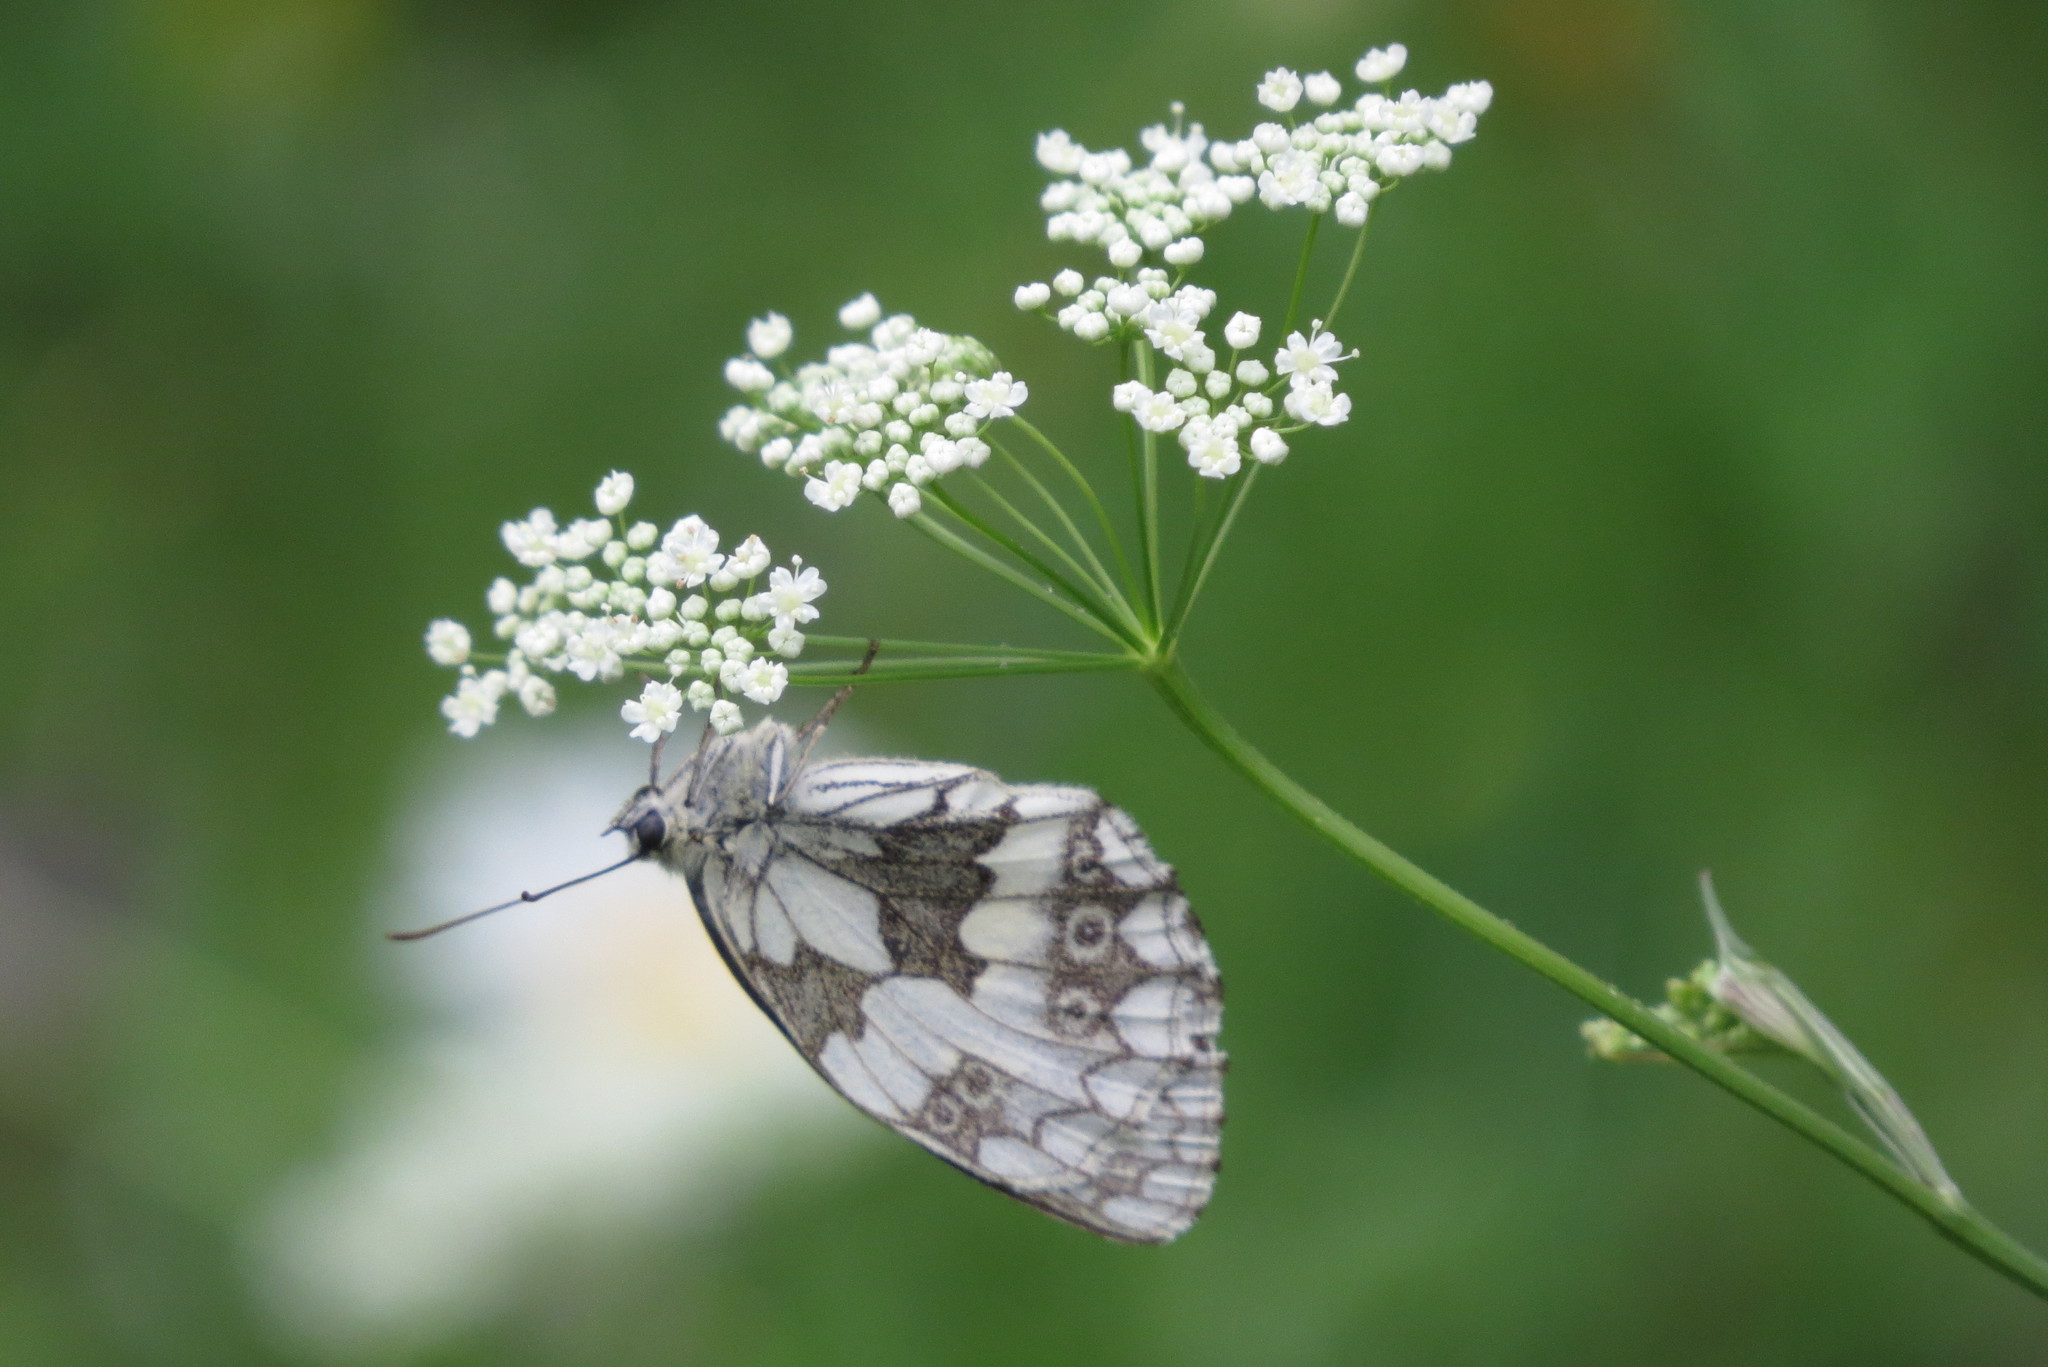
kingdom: Animalia
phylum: Arthropoda
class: Insecta
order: Lepidoptera
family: Nymphalidae
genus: Melanargia
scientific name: Melanargia galathea
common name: Marbled white
